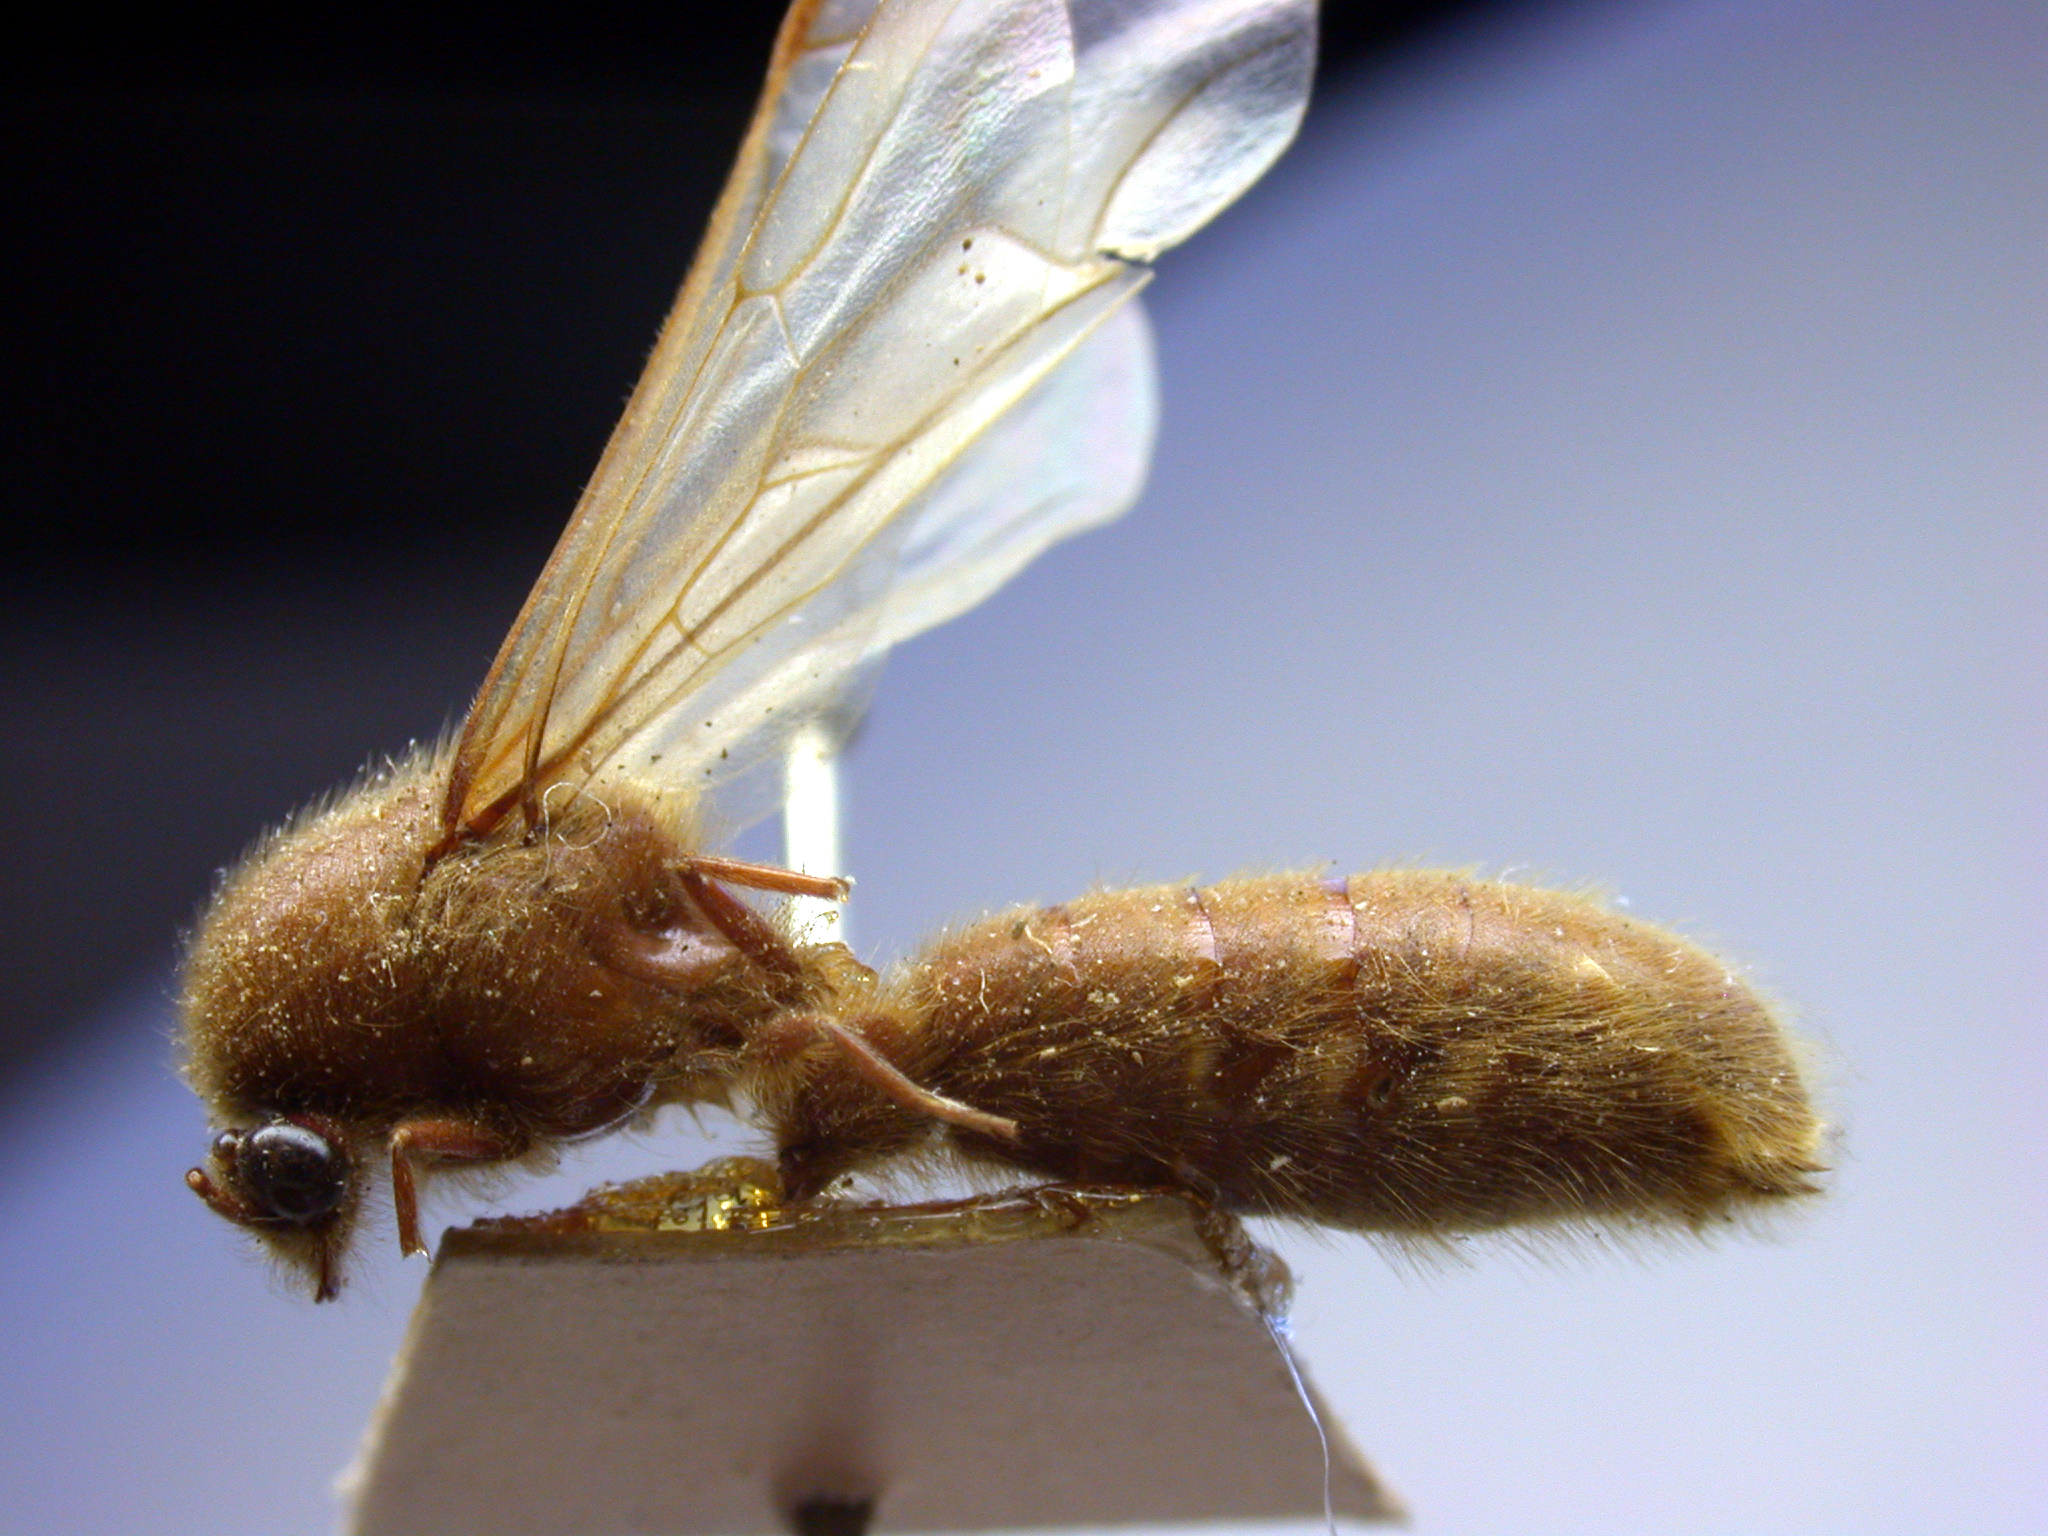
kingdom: Animalia
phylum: Arthropoda
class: Insecta
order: Hymenoptera
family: Formicidae
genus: Neivamyrmex
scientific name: Neivamyrmex jerrmanni
